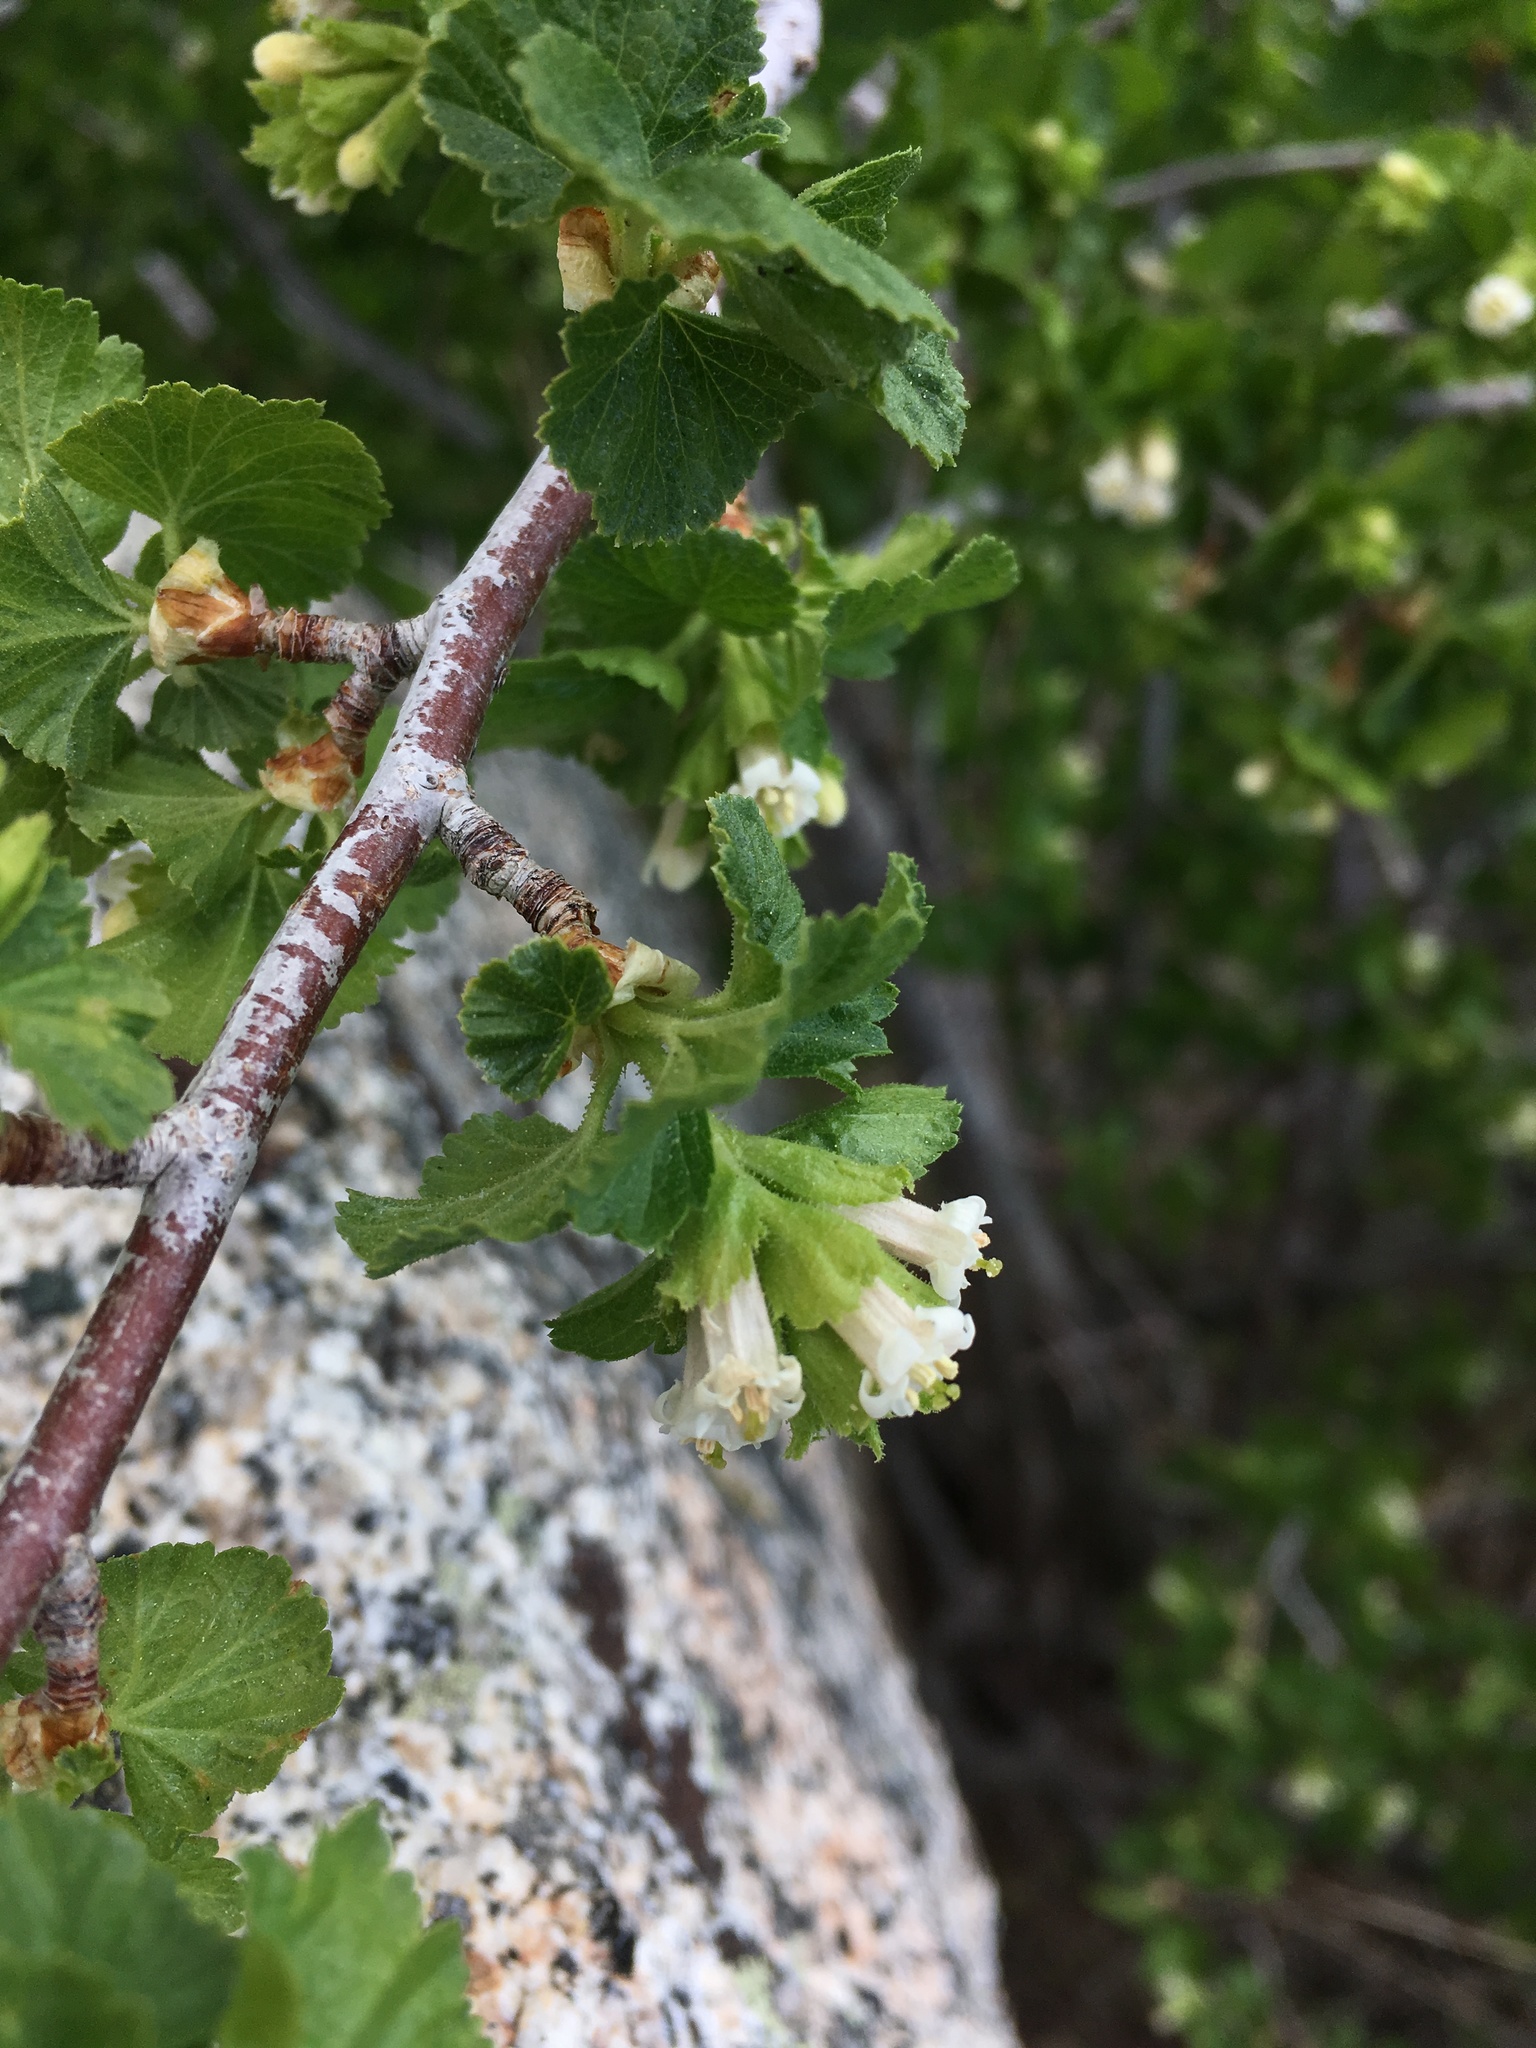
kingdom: Plantae
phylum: Tracheophyta
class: Magnoliopsida
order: Saxifragales
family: Grossulariaceae
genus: Ribes
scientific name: Ribes cereum
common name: Wax currant
